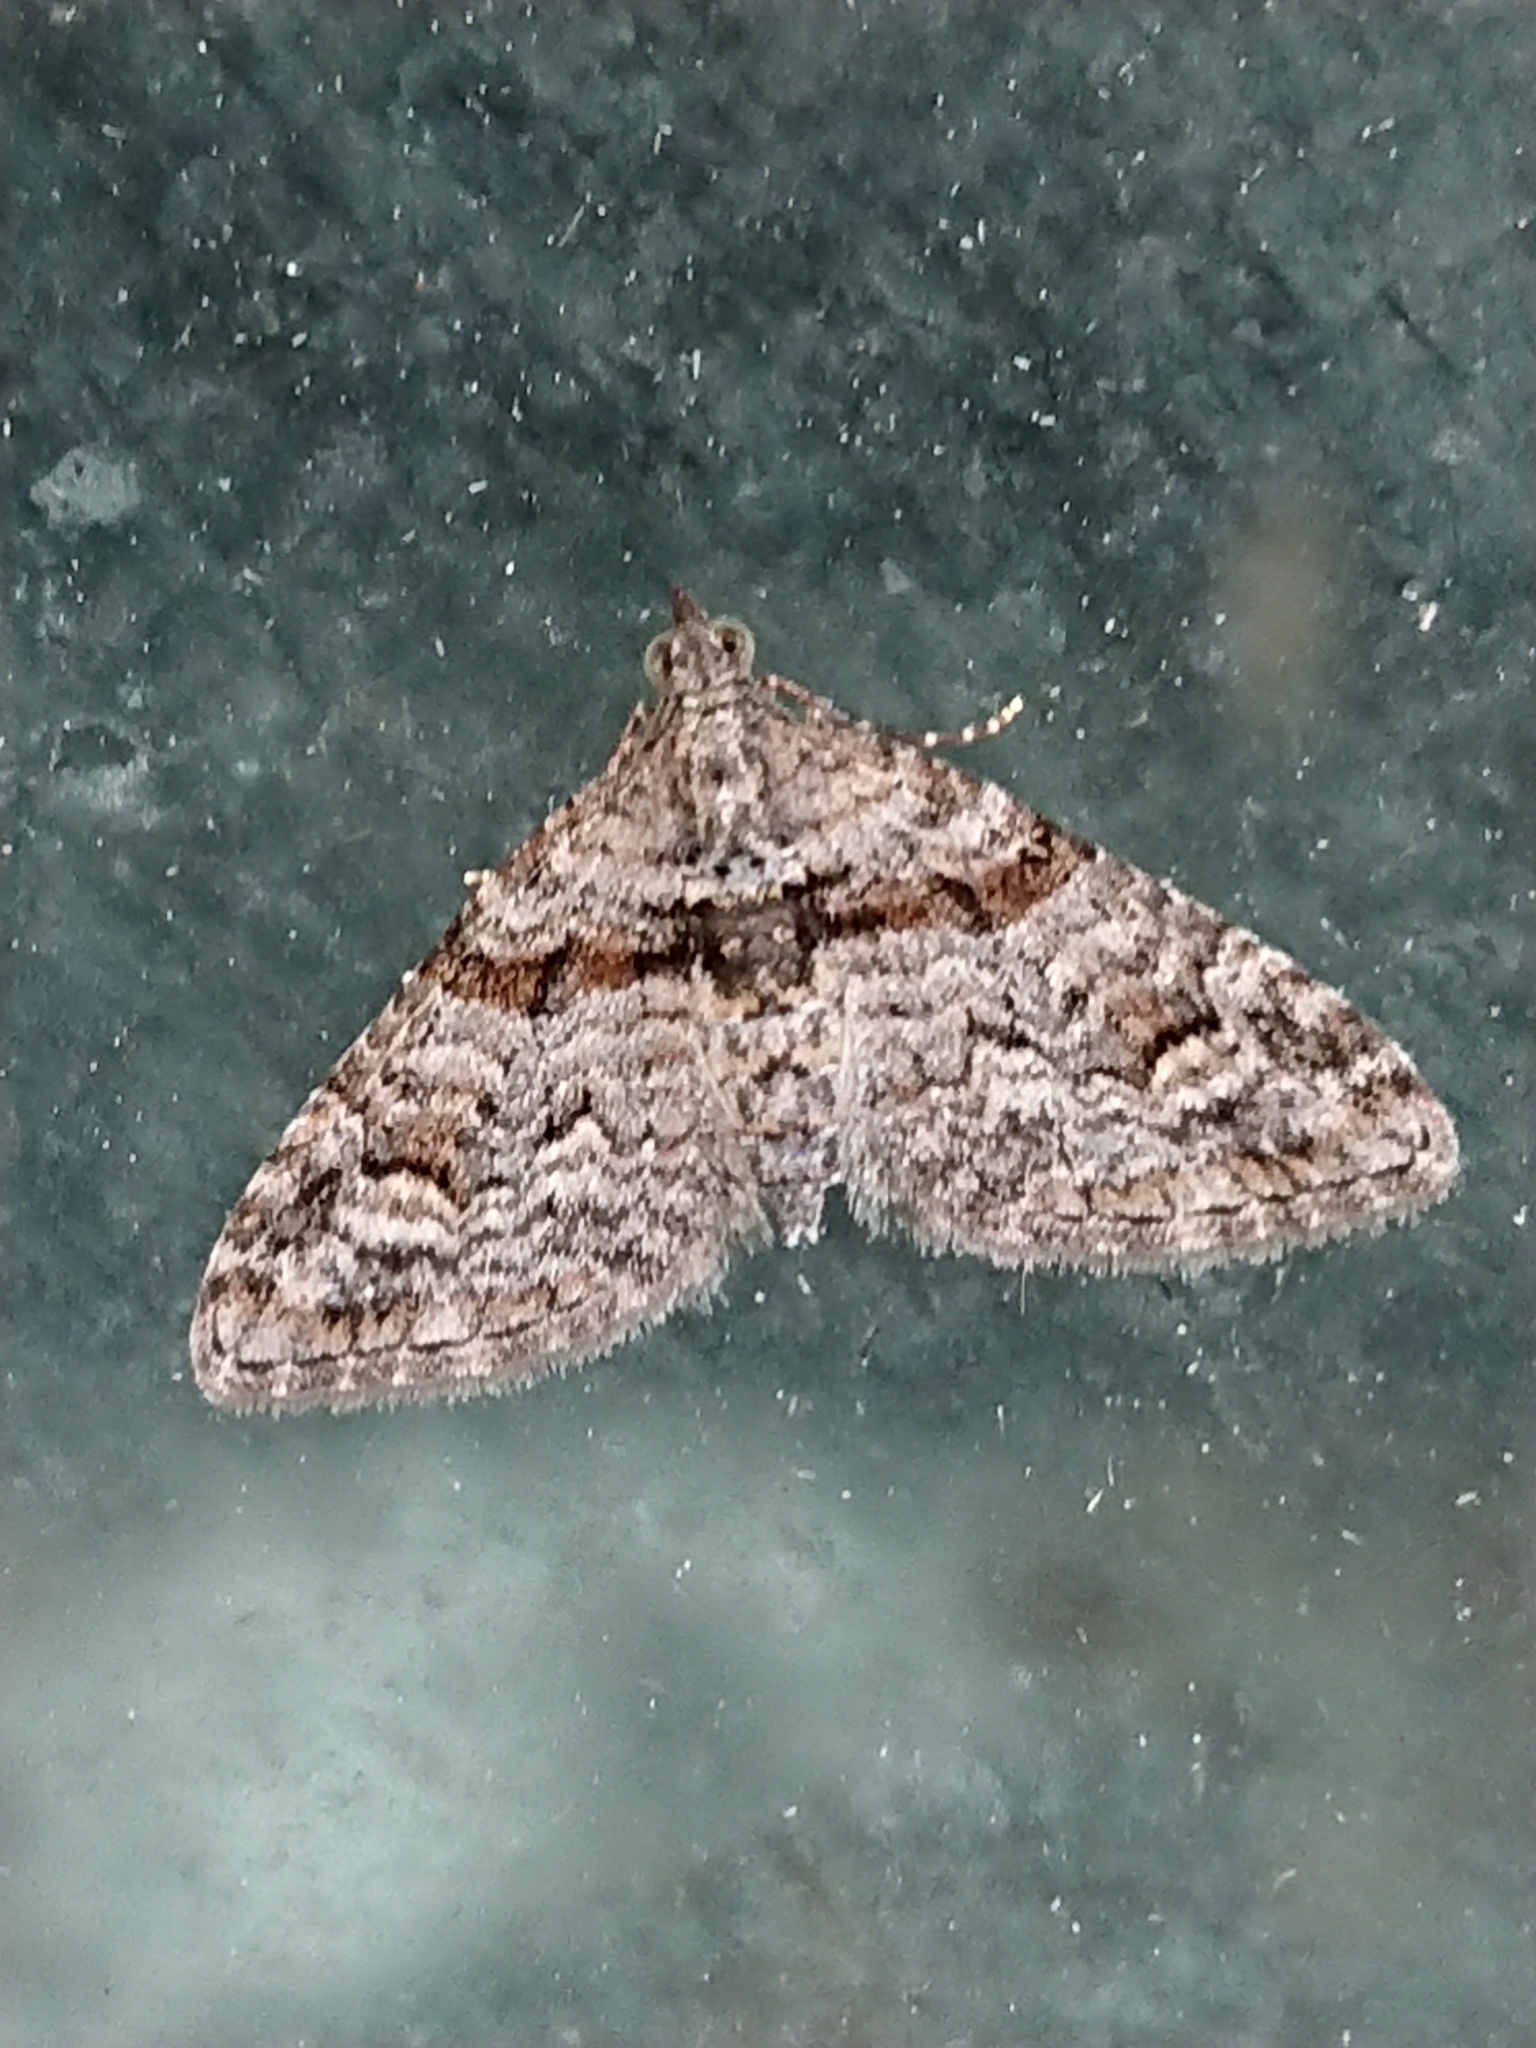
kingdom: Animalia
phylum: Arthropoda
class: Insecta
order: Lepidoptera
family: Geometridae
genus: Phrissogonus
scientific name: Phrissogonus laticostata
